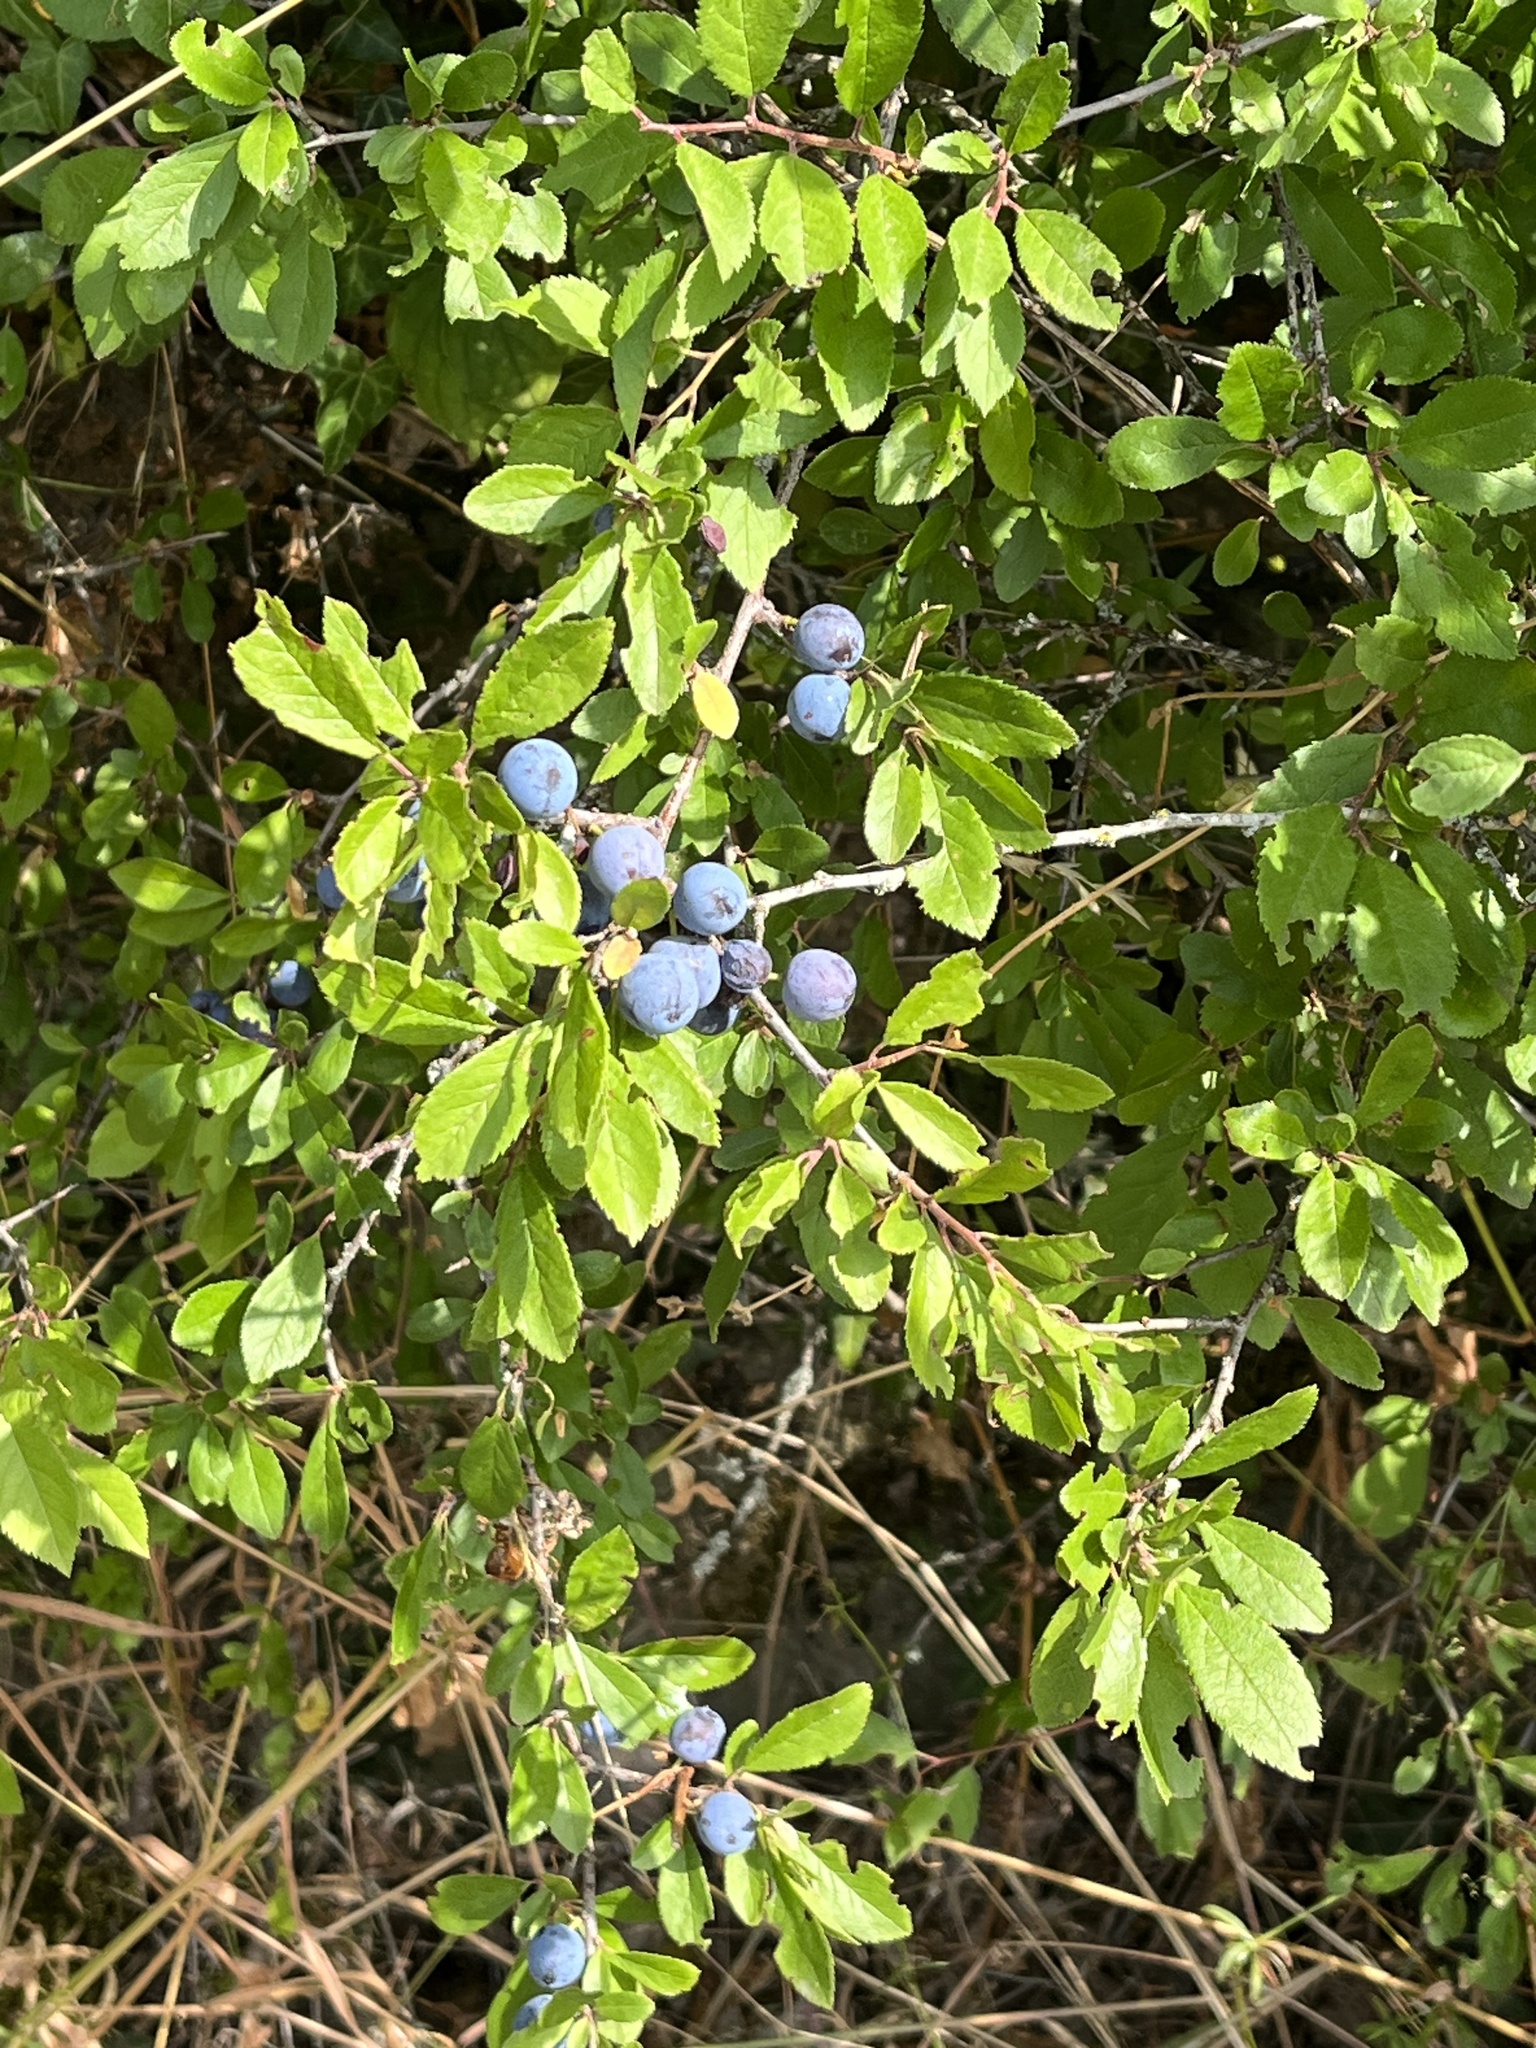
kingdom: Plantae
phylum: Tracheophyta
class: Magnoliopsida
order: Rosales
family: Rosaceae
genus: Prunus
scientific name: Prunus spinosa
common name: Blackthorn
